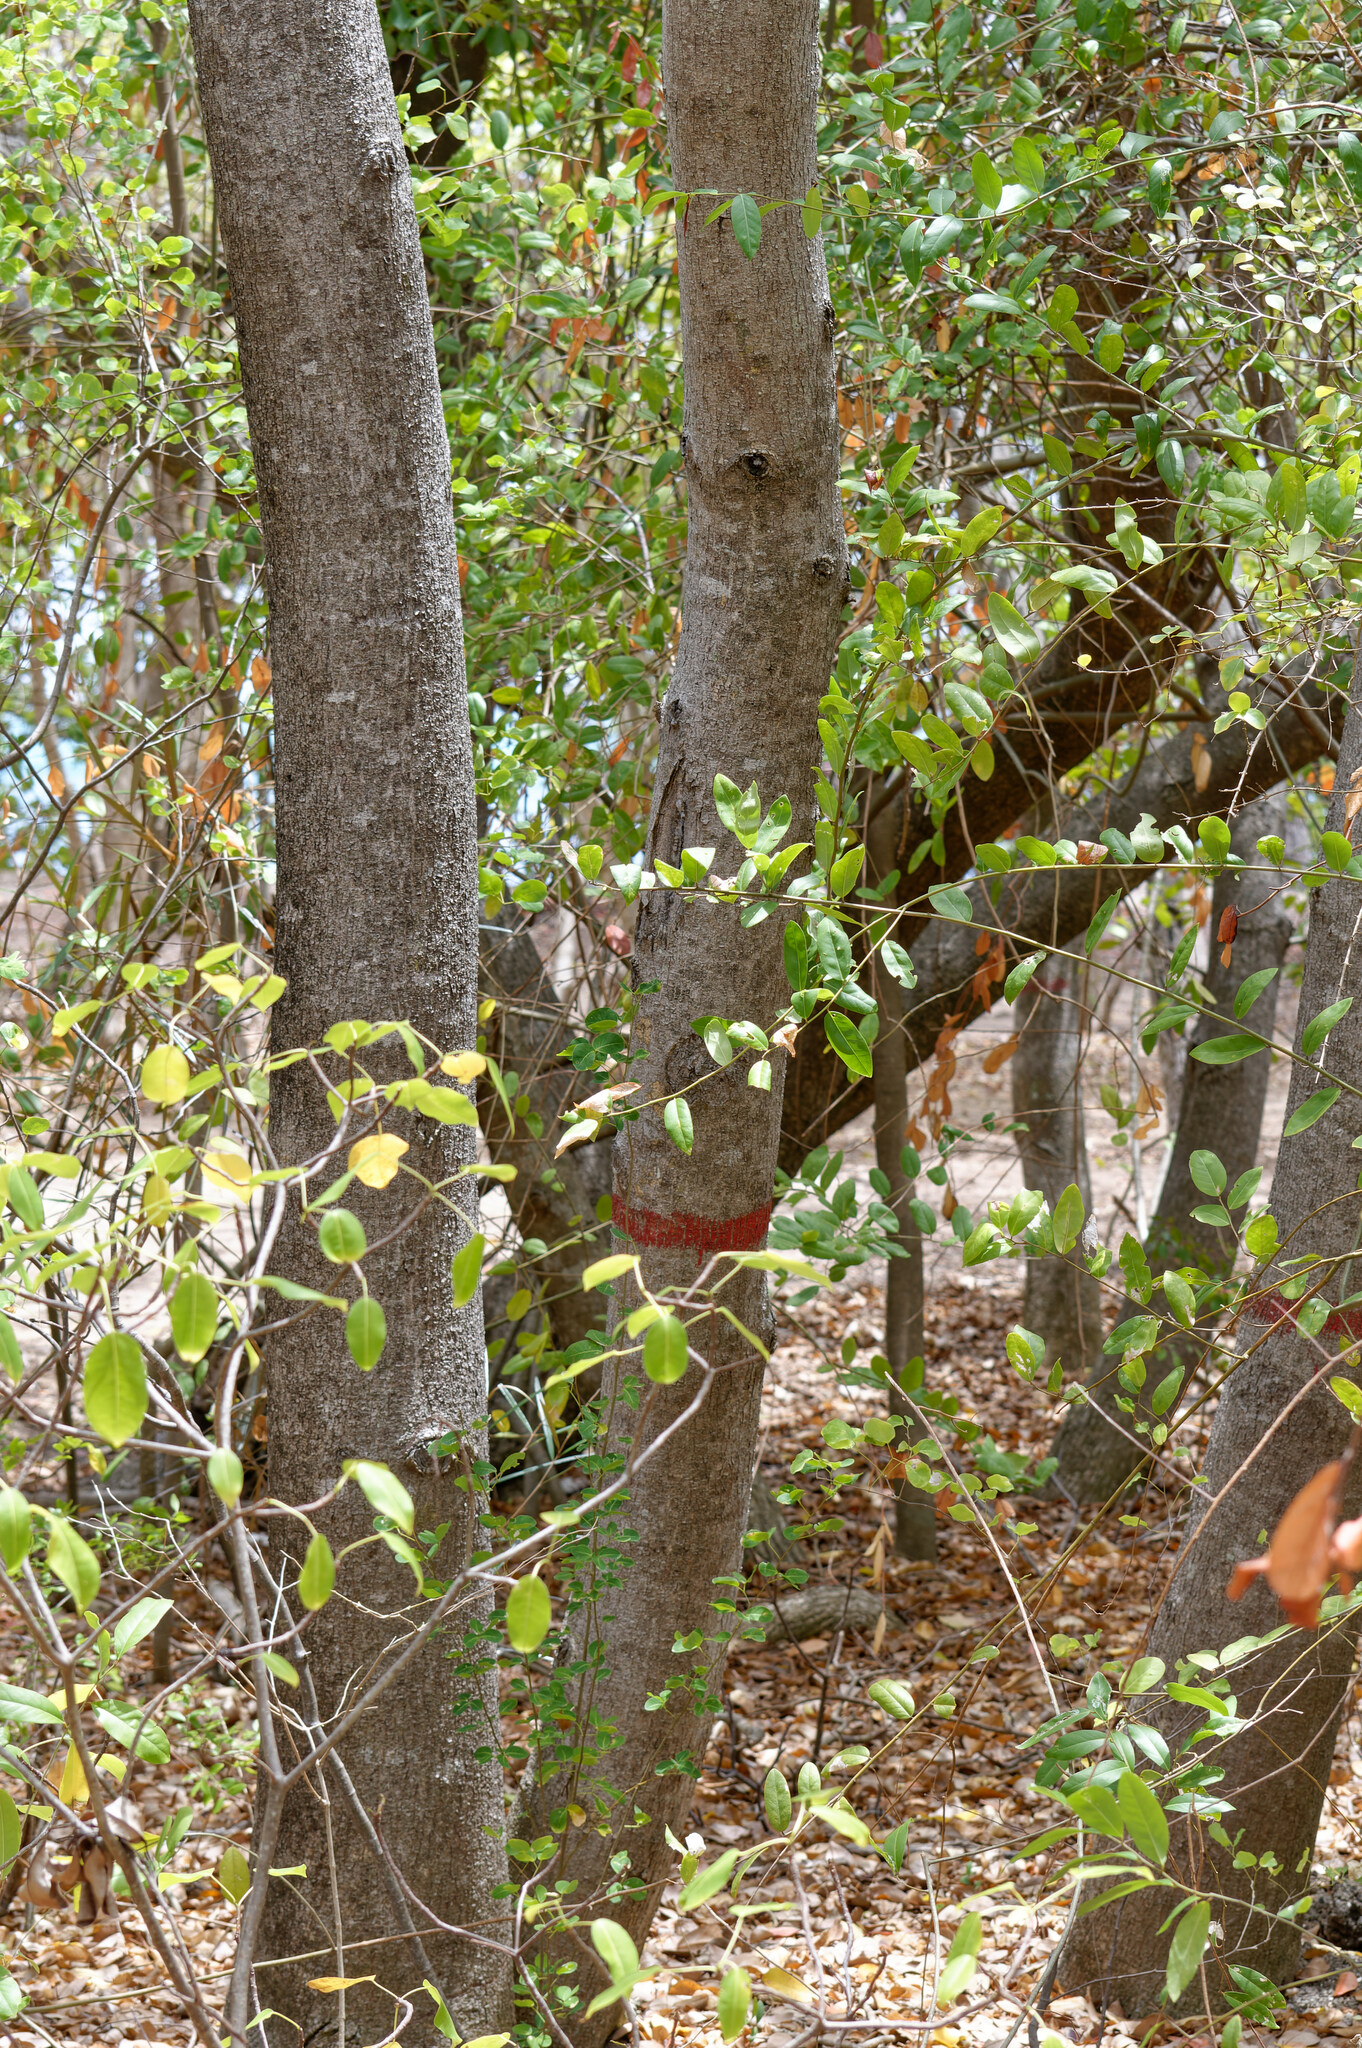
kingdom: Plantae
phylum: Tracheophyta
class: Magnoliopsida
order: Malpighiales
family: Euphorbiaceae
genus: Hippomane
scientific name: Hippomane mancinella
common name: Manchineel
